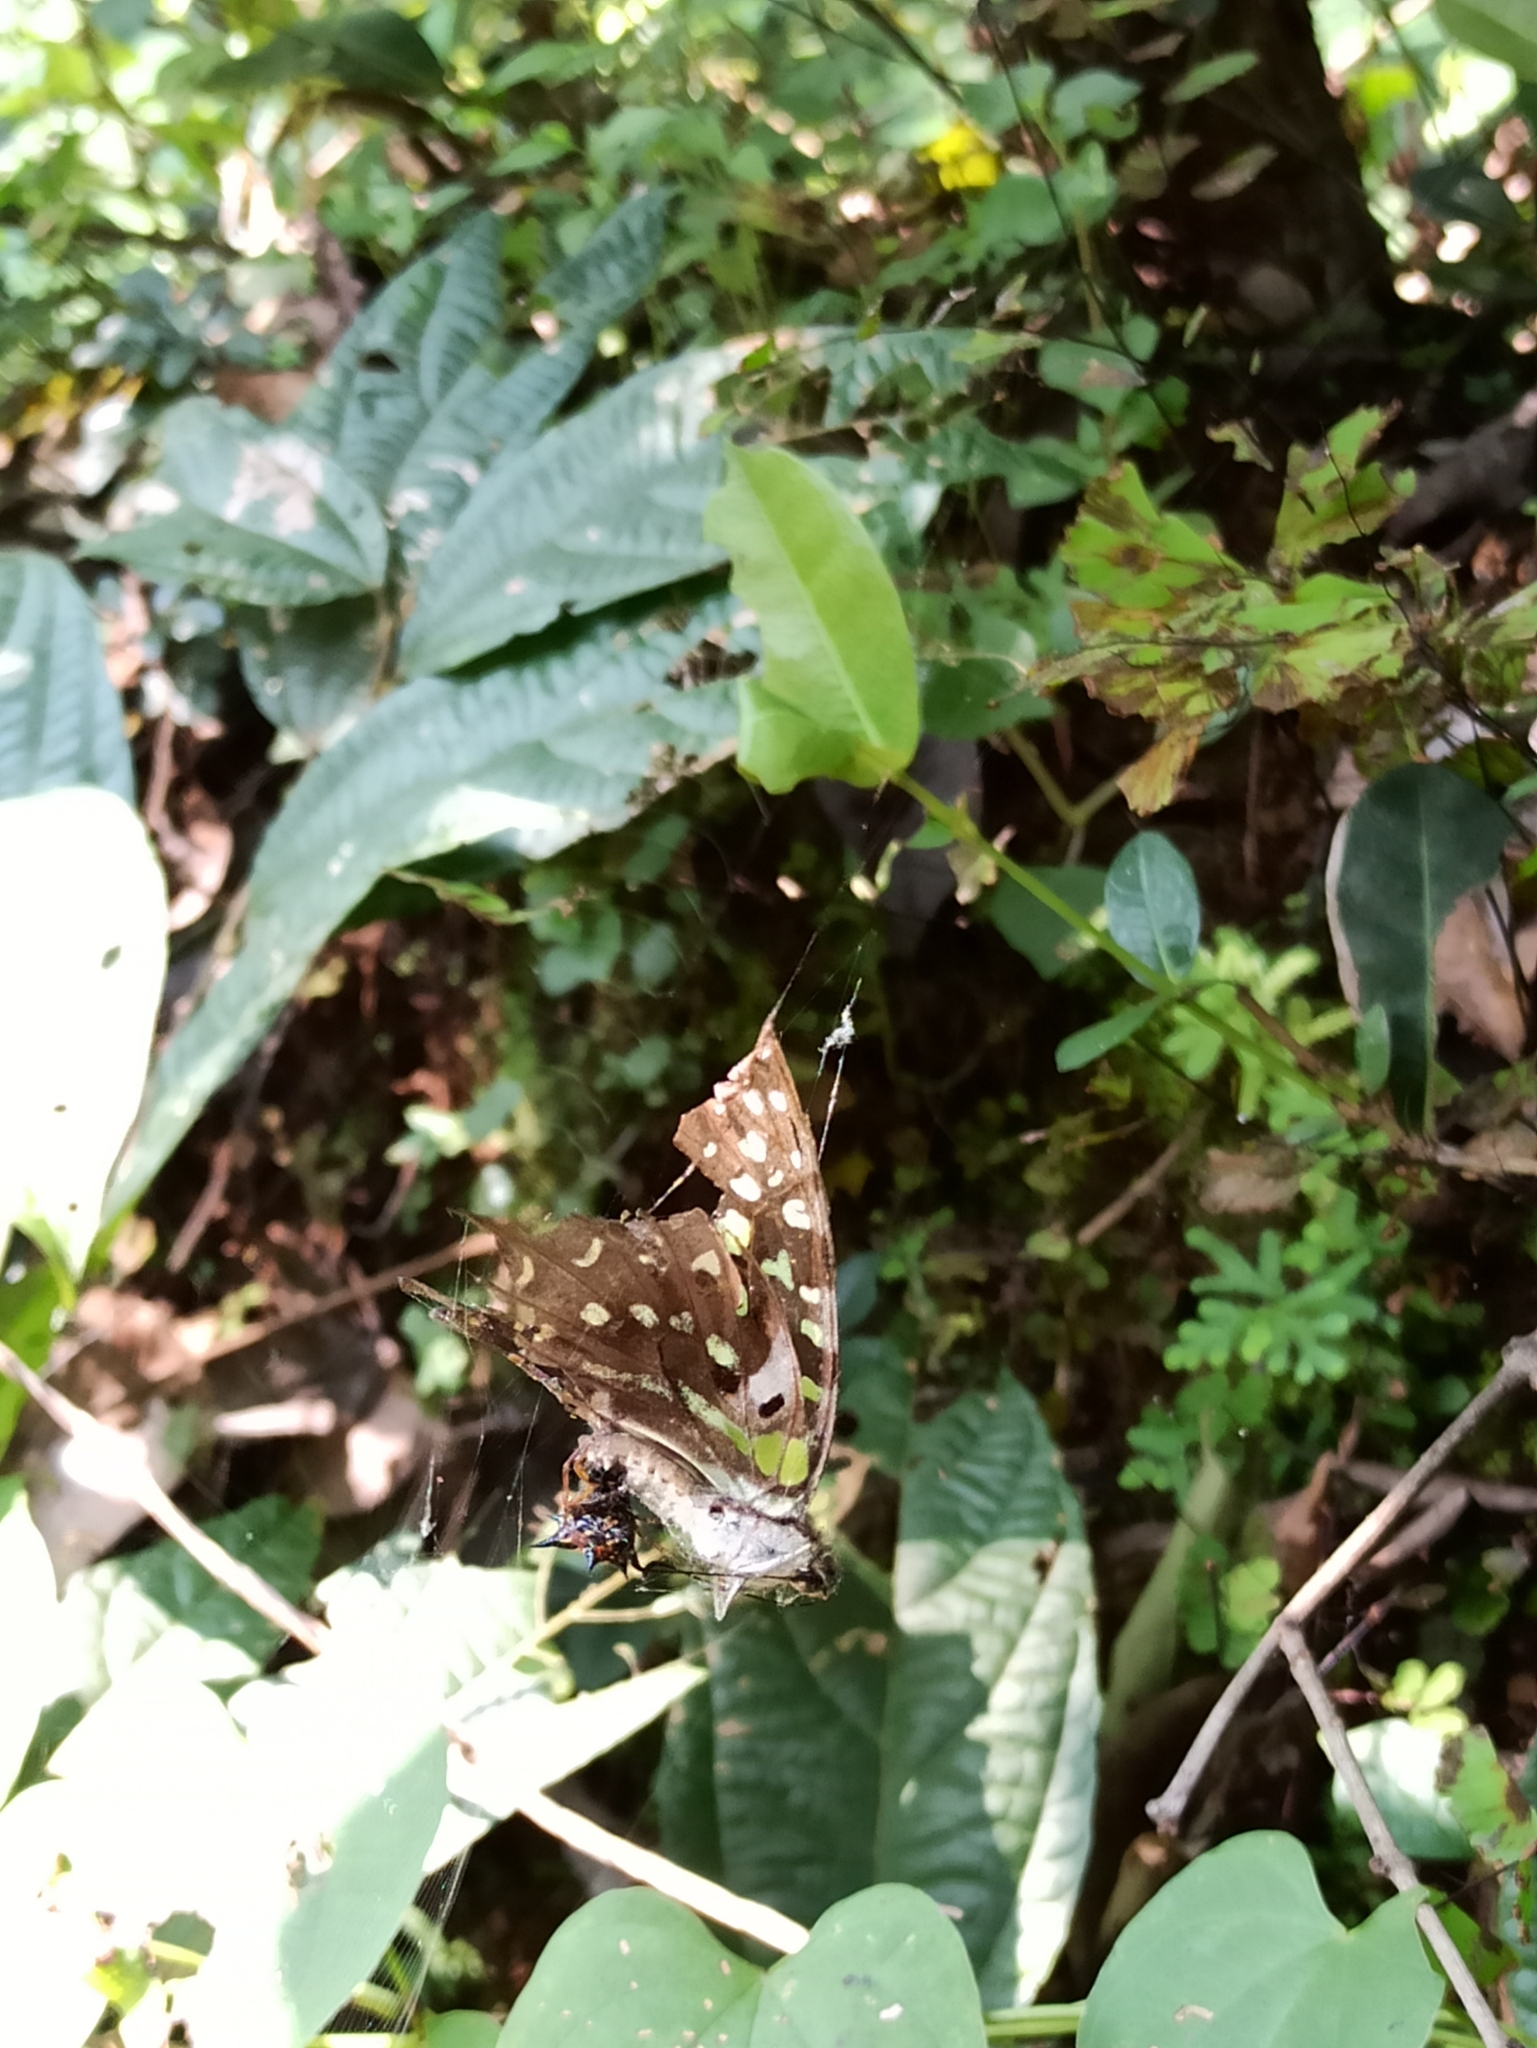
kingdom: Animalia
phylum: Arthropoda
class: Insecta
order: Lepidoptera
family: Papilionidae
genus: Graphium
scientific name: Graphium agamemnon
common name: Tailed jay
